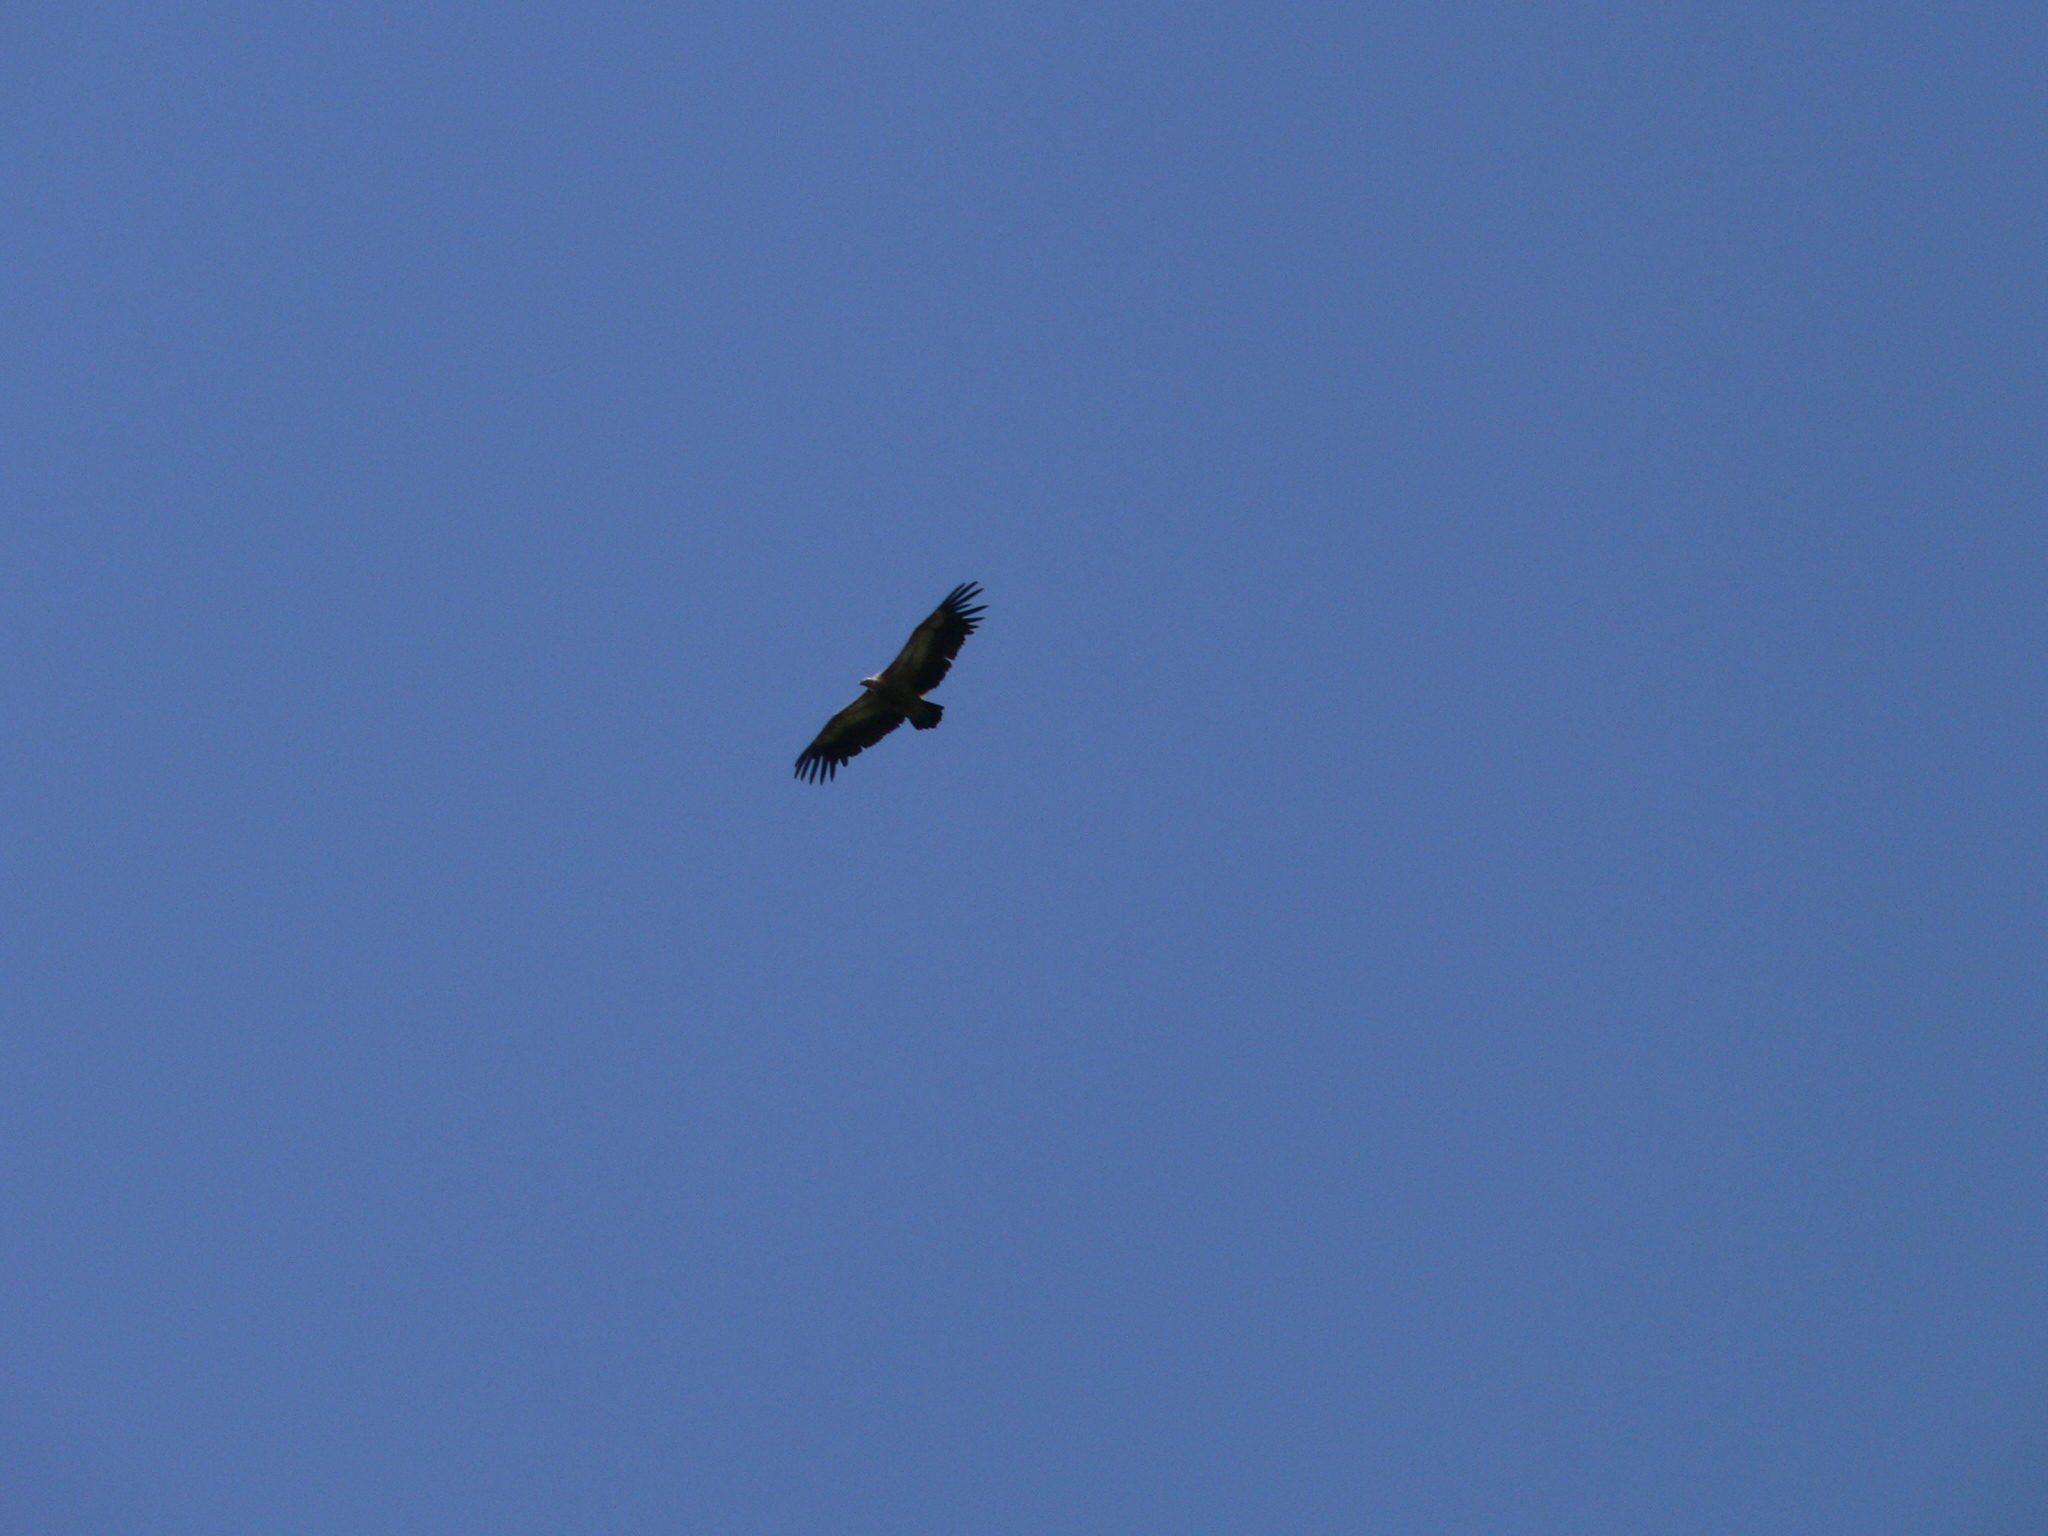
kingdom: Animalia
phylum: Chordata
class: Aves
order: Accipitriformes
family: Accipitridae
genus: Gyps
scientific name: Gyps fulvus
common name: Griffon vulture
